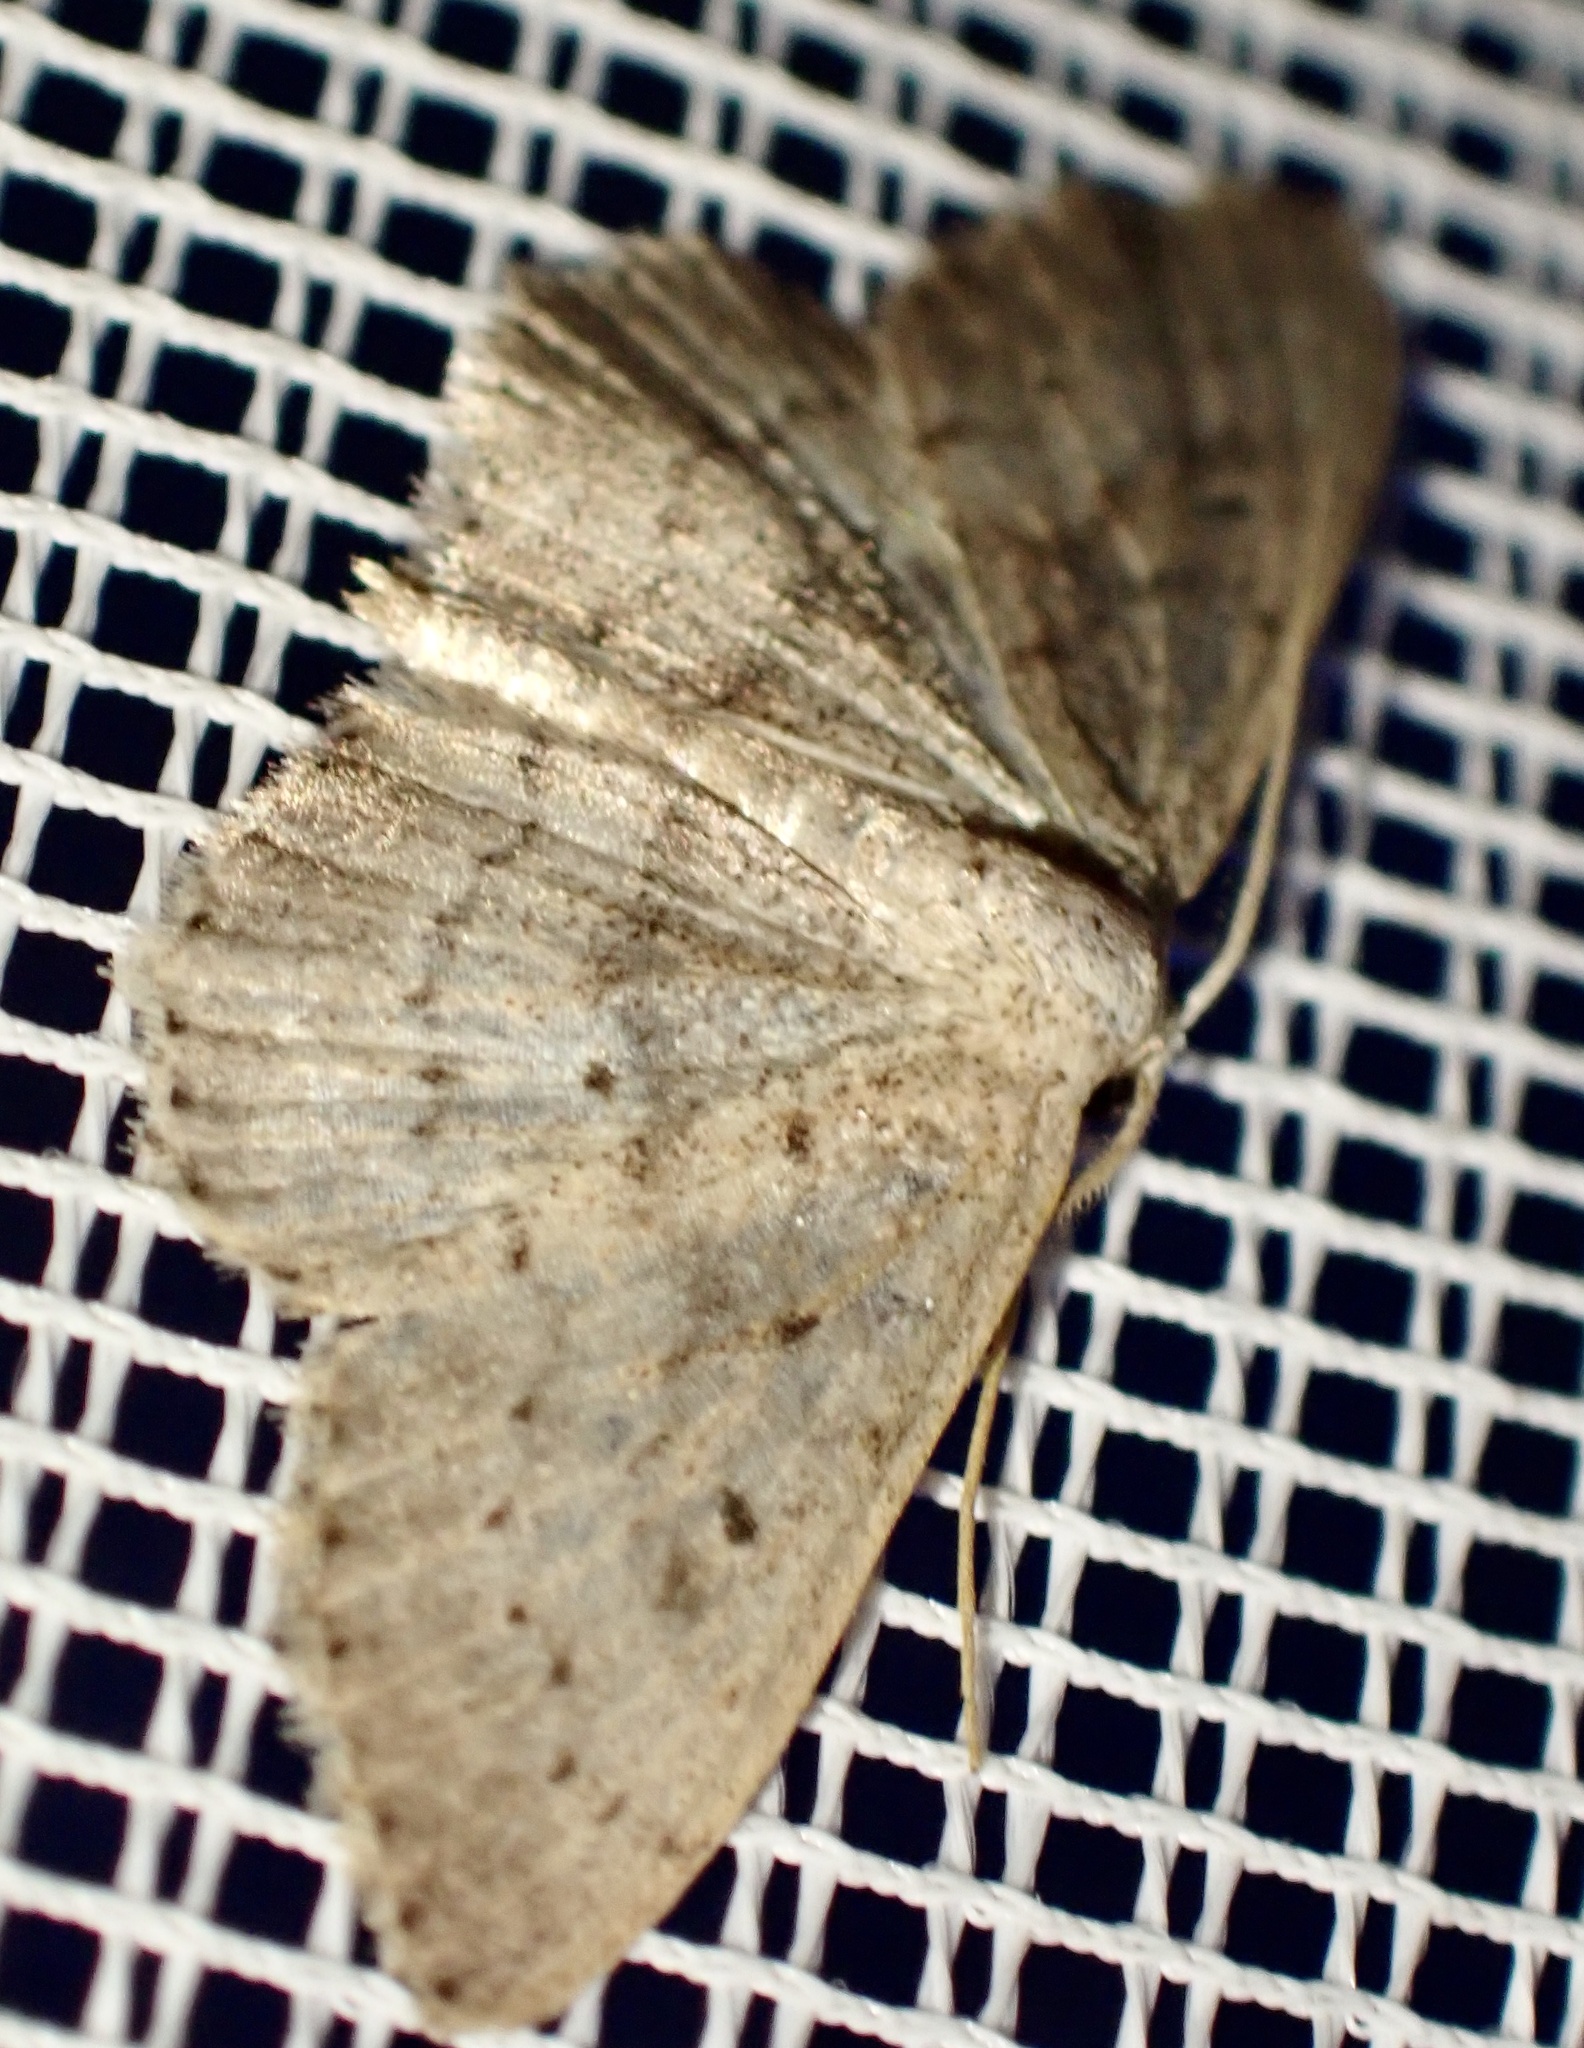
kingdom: Animalia
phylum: Arthropoda
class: Insecta
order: Lepidoptera
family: Geometridae
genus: Scopula
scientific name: Scopula guancharia
